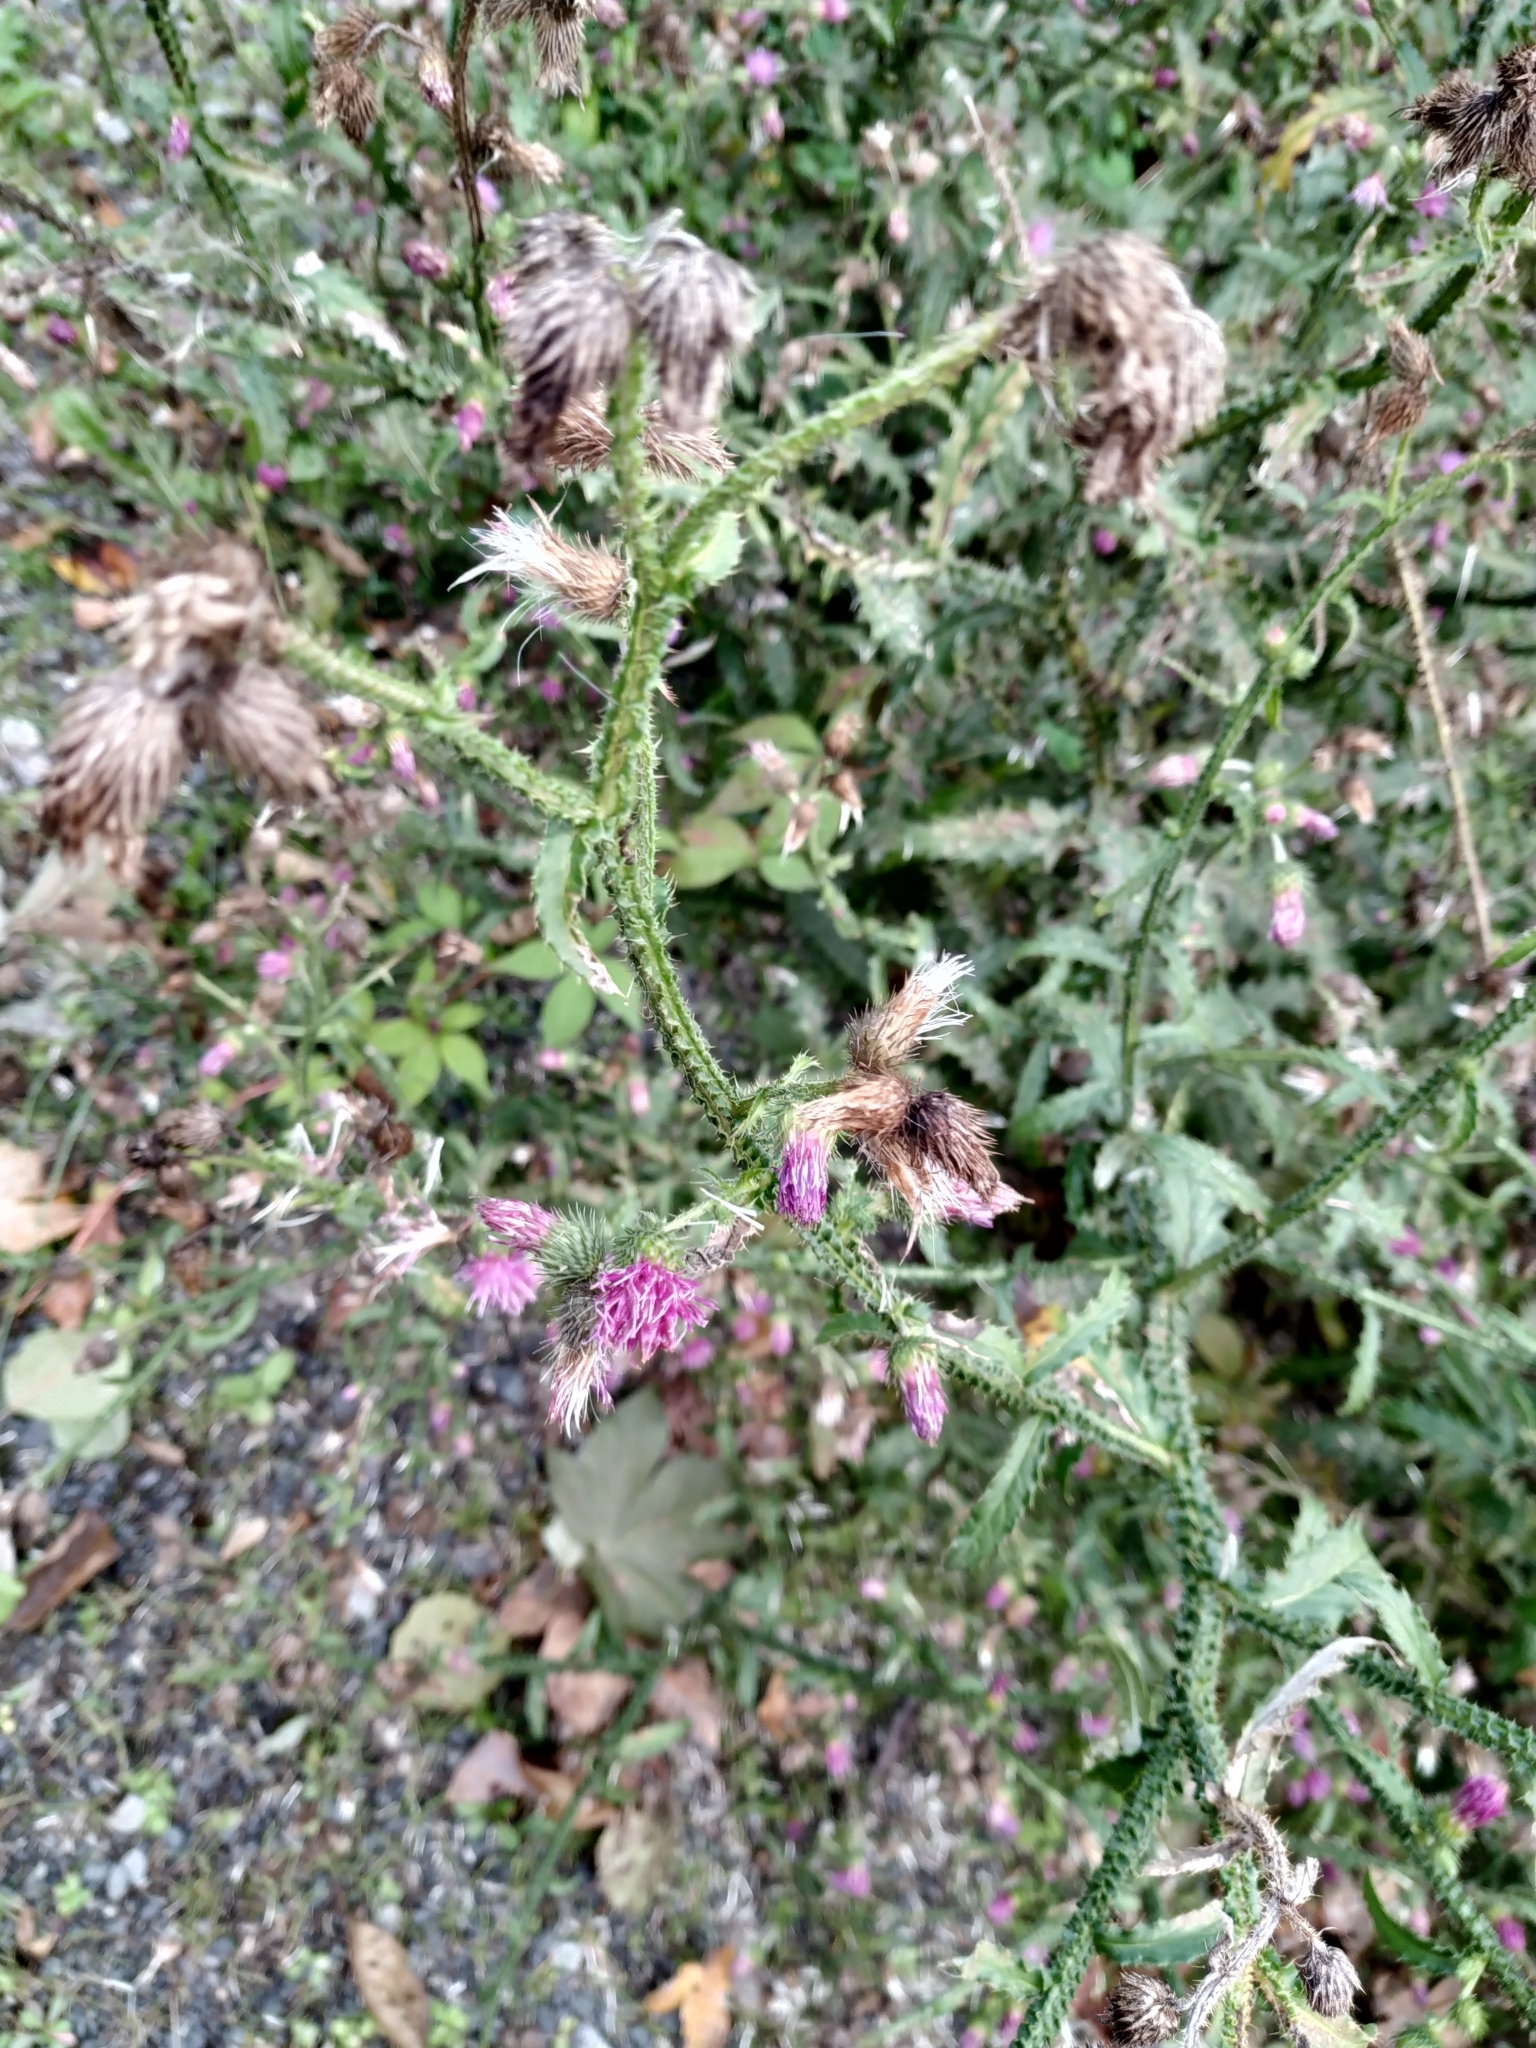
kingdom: Plantae
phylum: Tracheophyta
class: Magnoliopsida
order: Asterales
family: Asteraceae
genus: Carduus
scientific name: Carduus crispus
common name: Welted thistle
